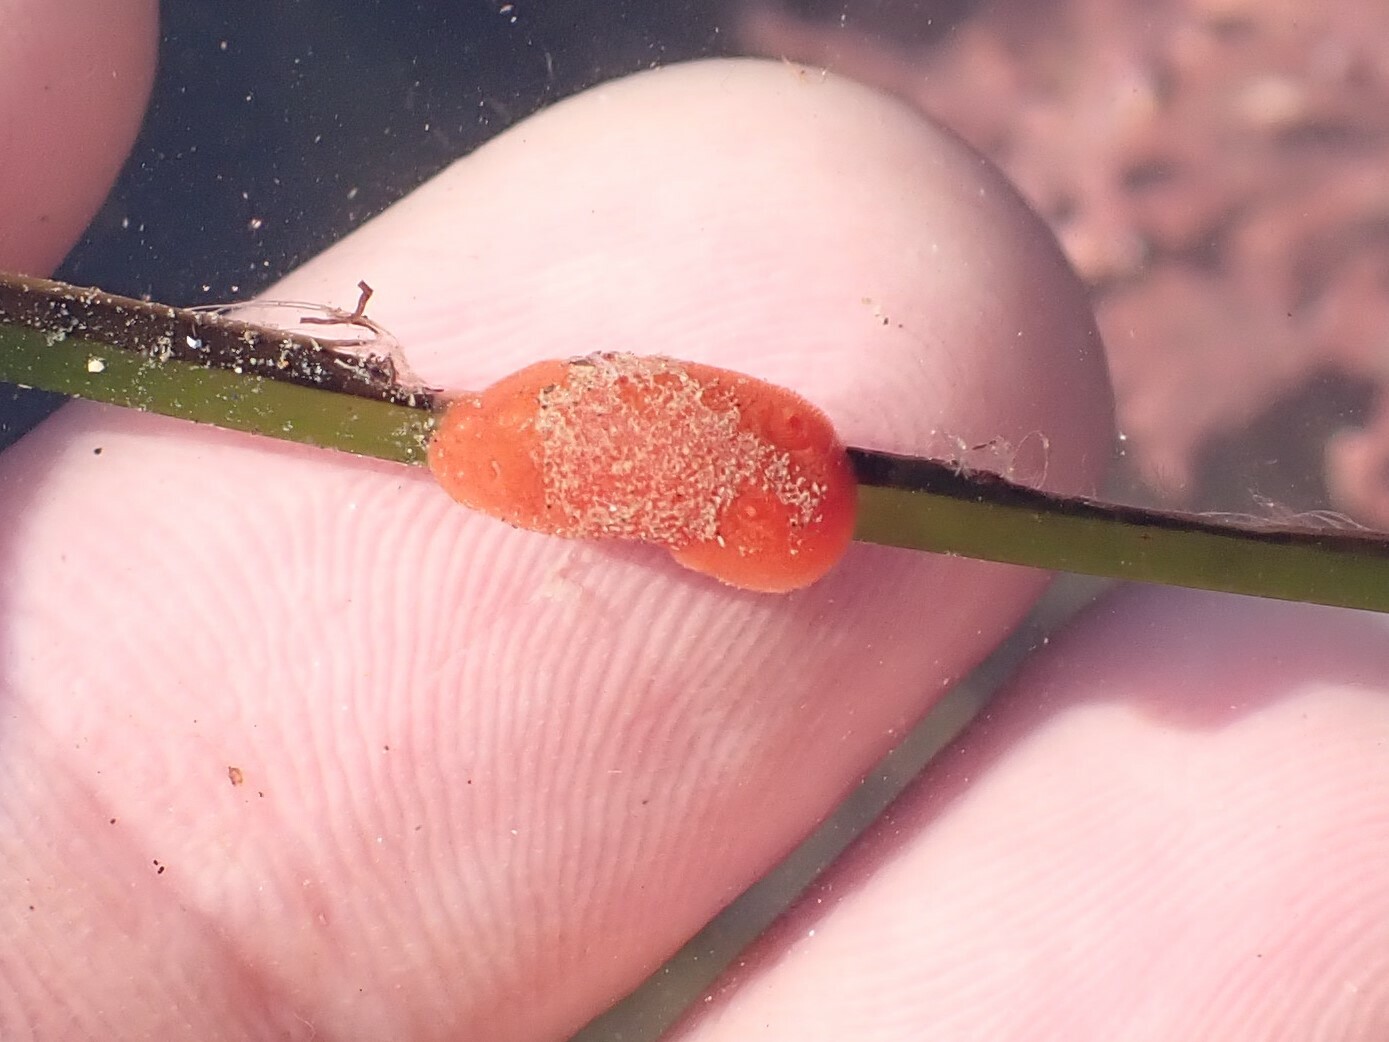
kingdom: Animalia
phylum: Mollusca
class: Gastropoda
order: Nudibranchia
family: Discodorididae
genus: Rostanga
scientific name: Rostanga pulchra
